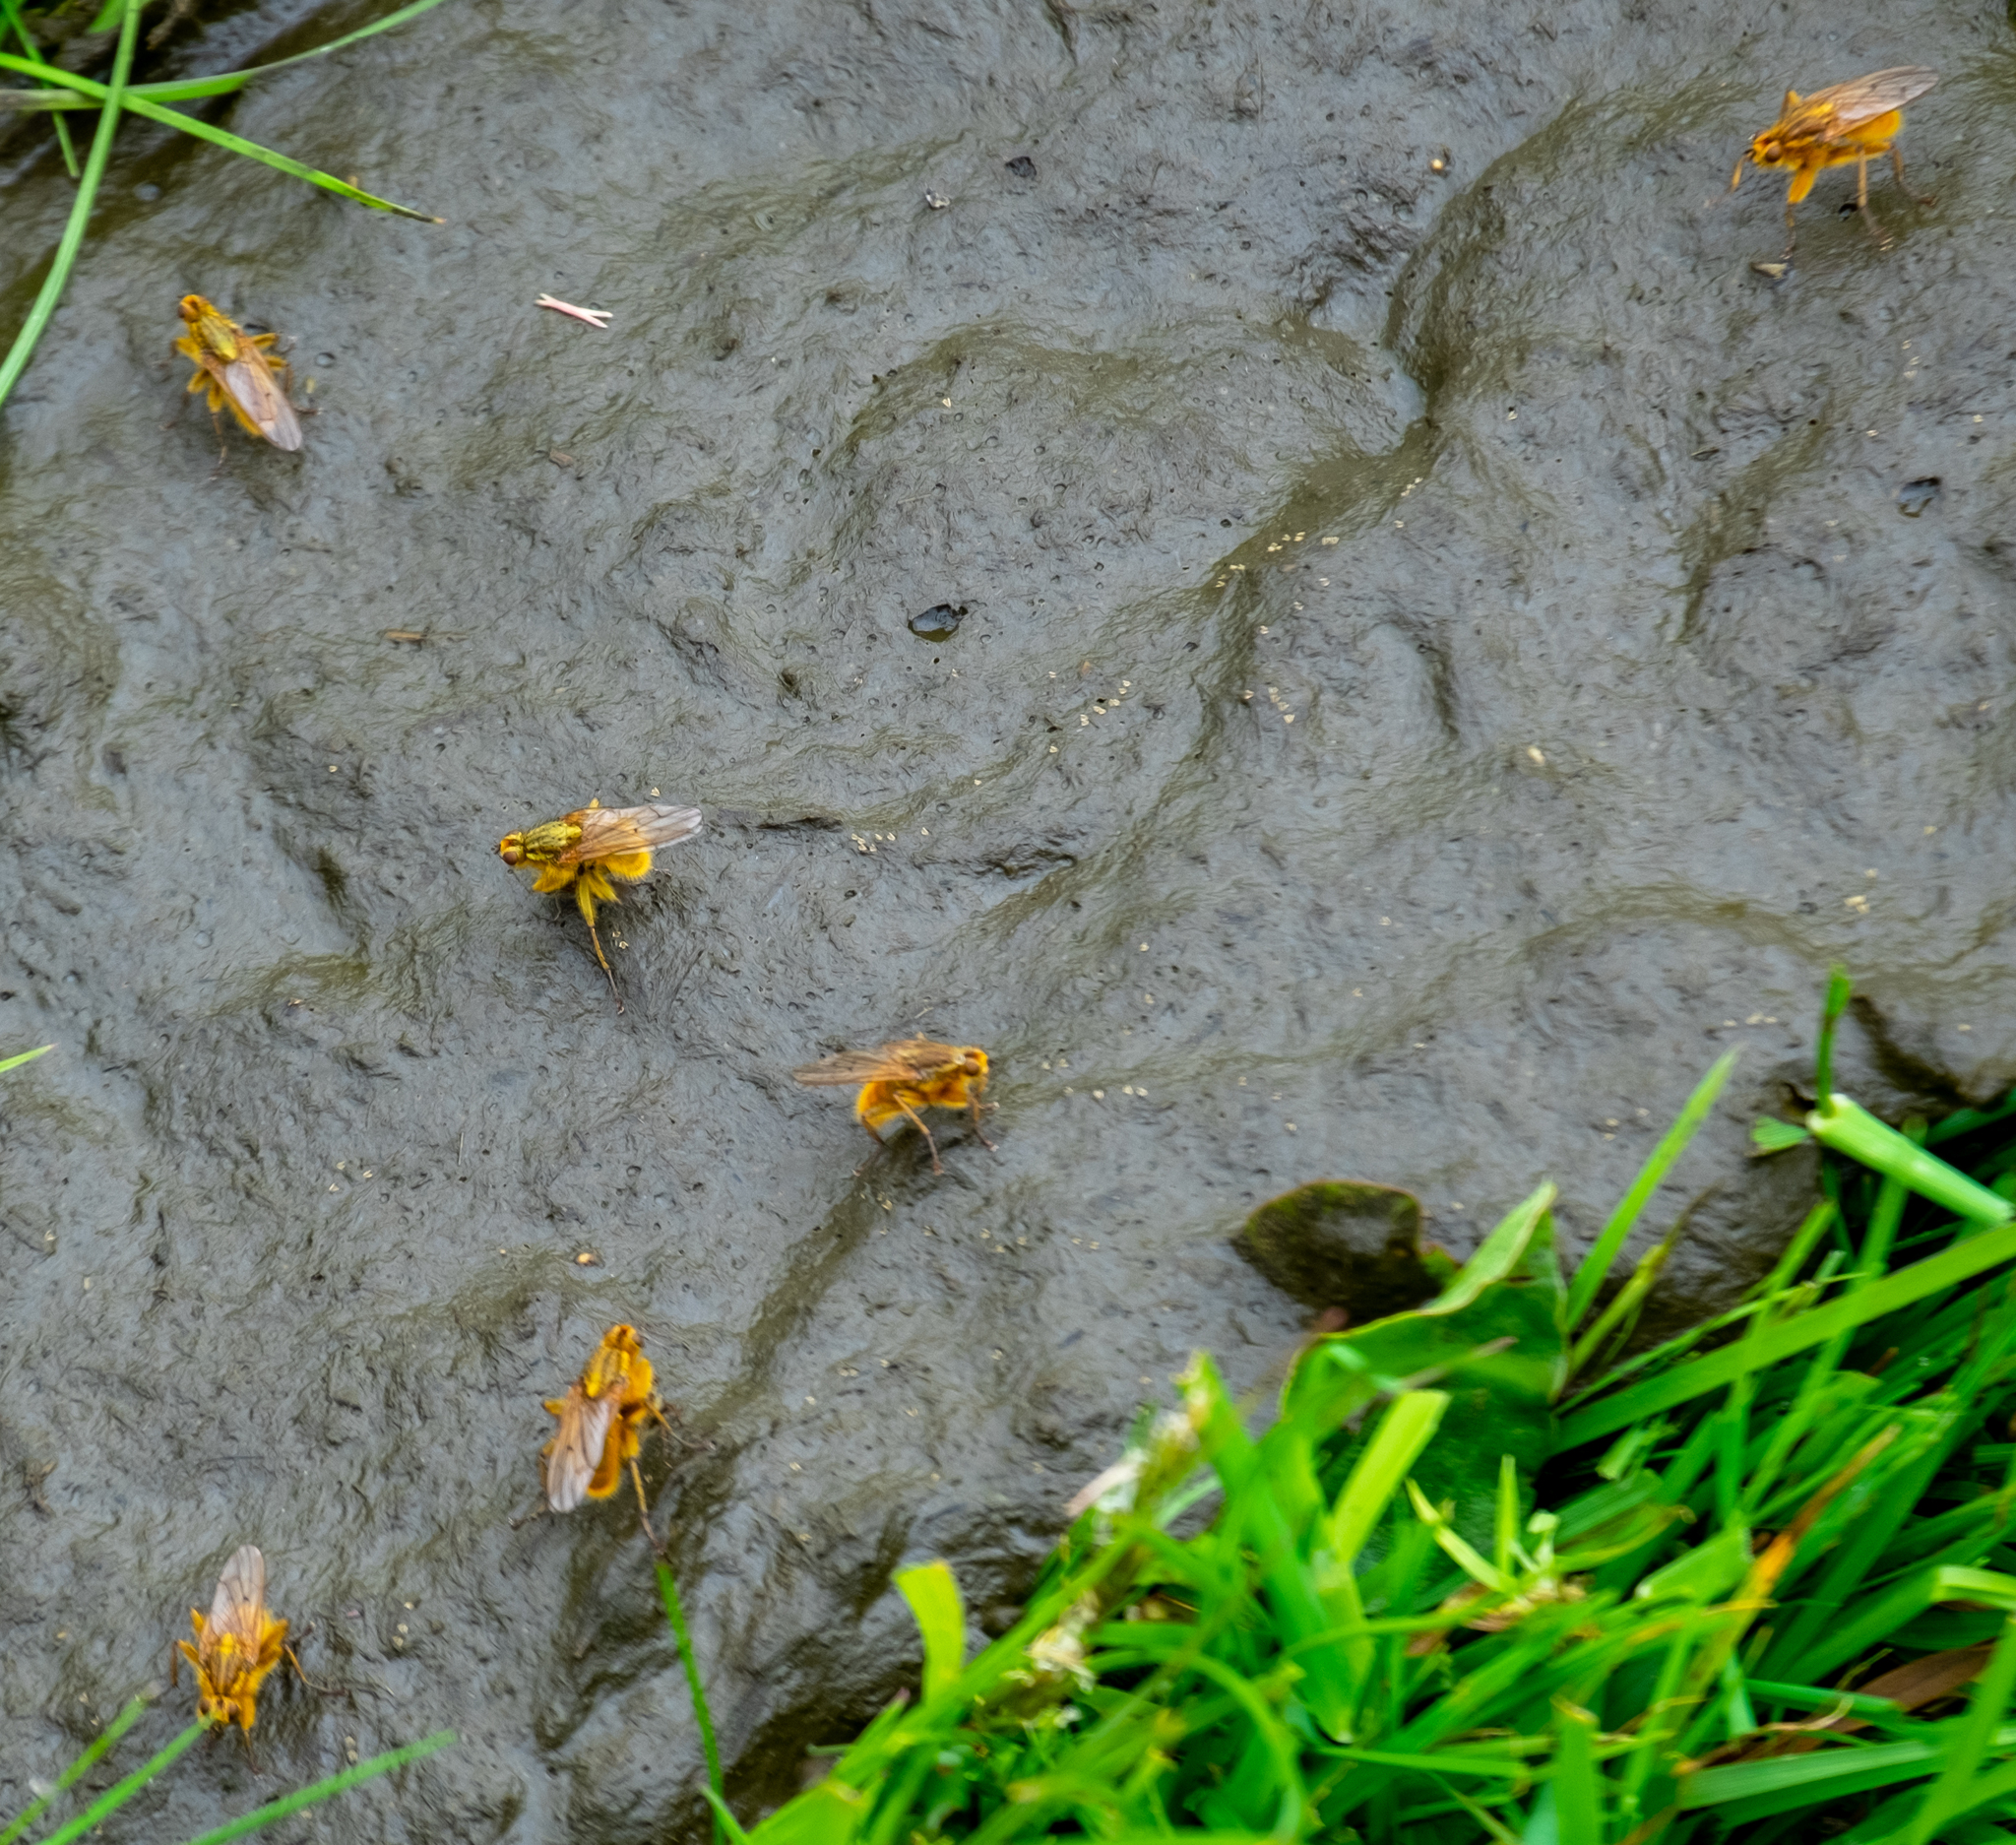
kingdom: Animalia
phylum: Arthropoda
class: Insecta
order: Diptera
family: Scathophagidae
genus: Scathophaga
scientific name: Scathophaga stercoraria
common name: Yellow dung fly
